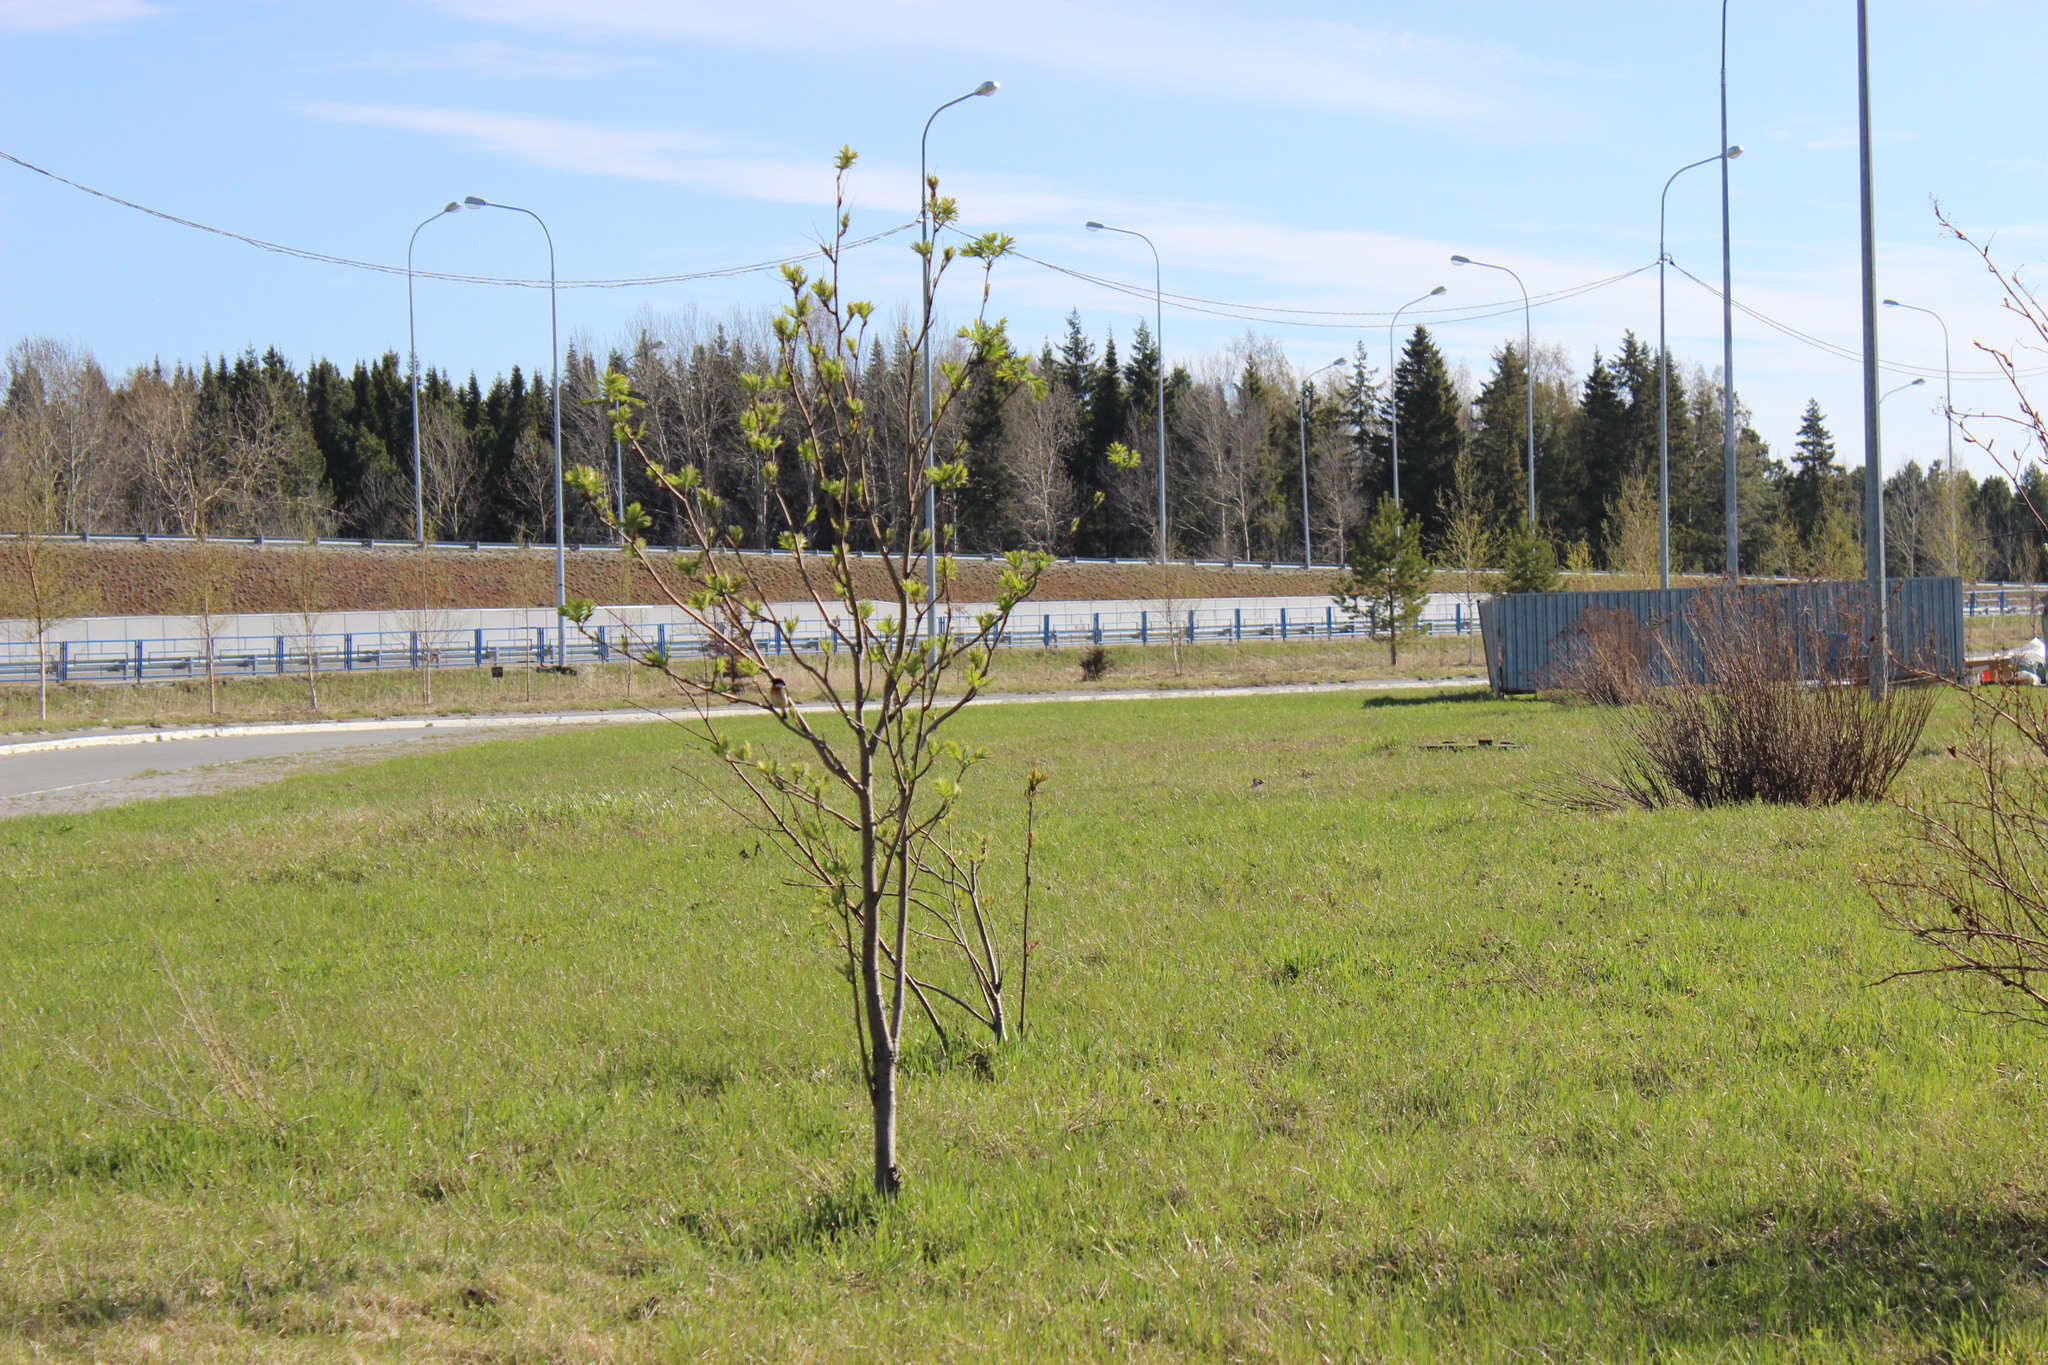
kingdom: Animalia
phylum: Chordata
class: Aves
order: Passeriformes
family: Muscicapidae
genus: Saxicola
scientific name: Saxicola maurus
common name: Siberian stonechat
